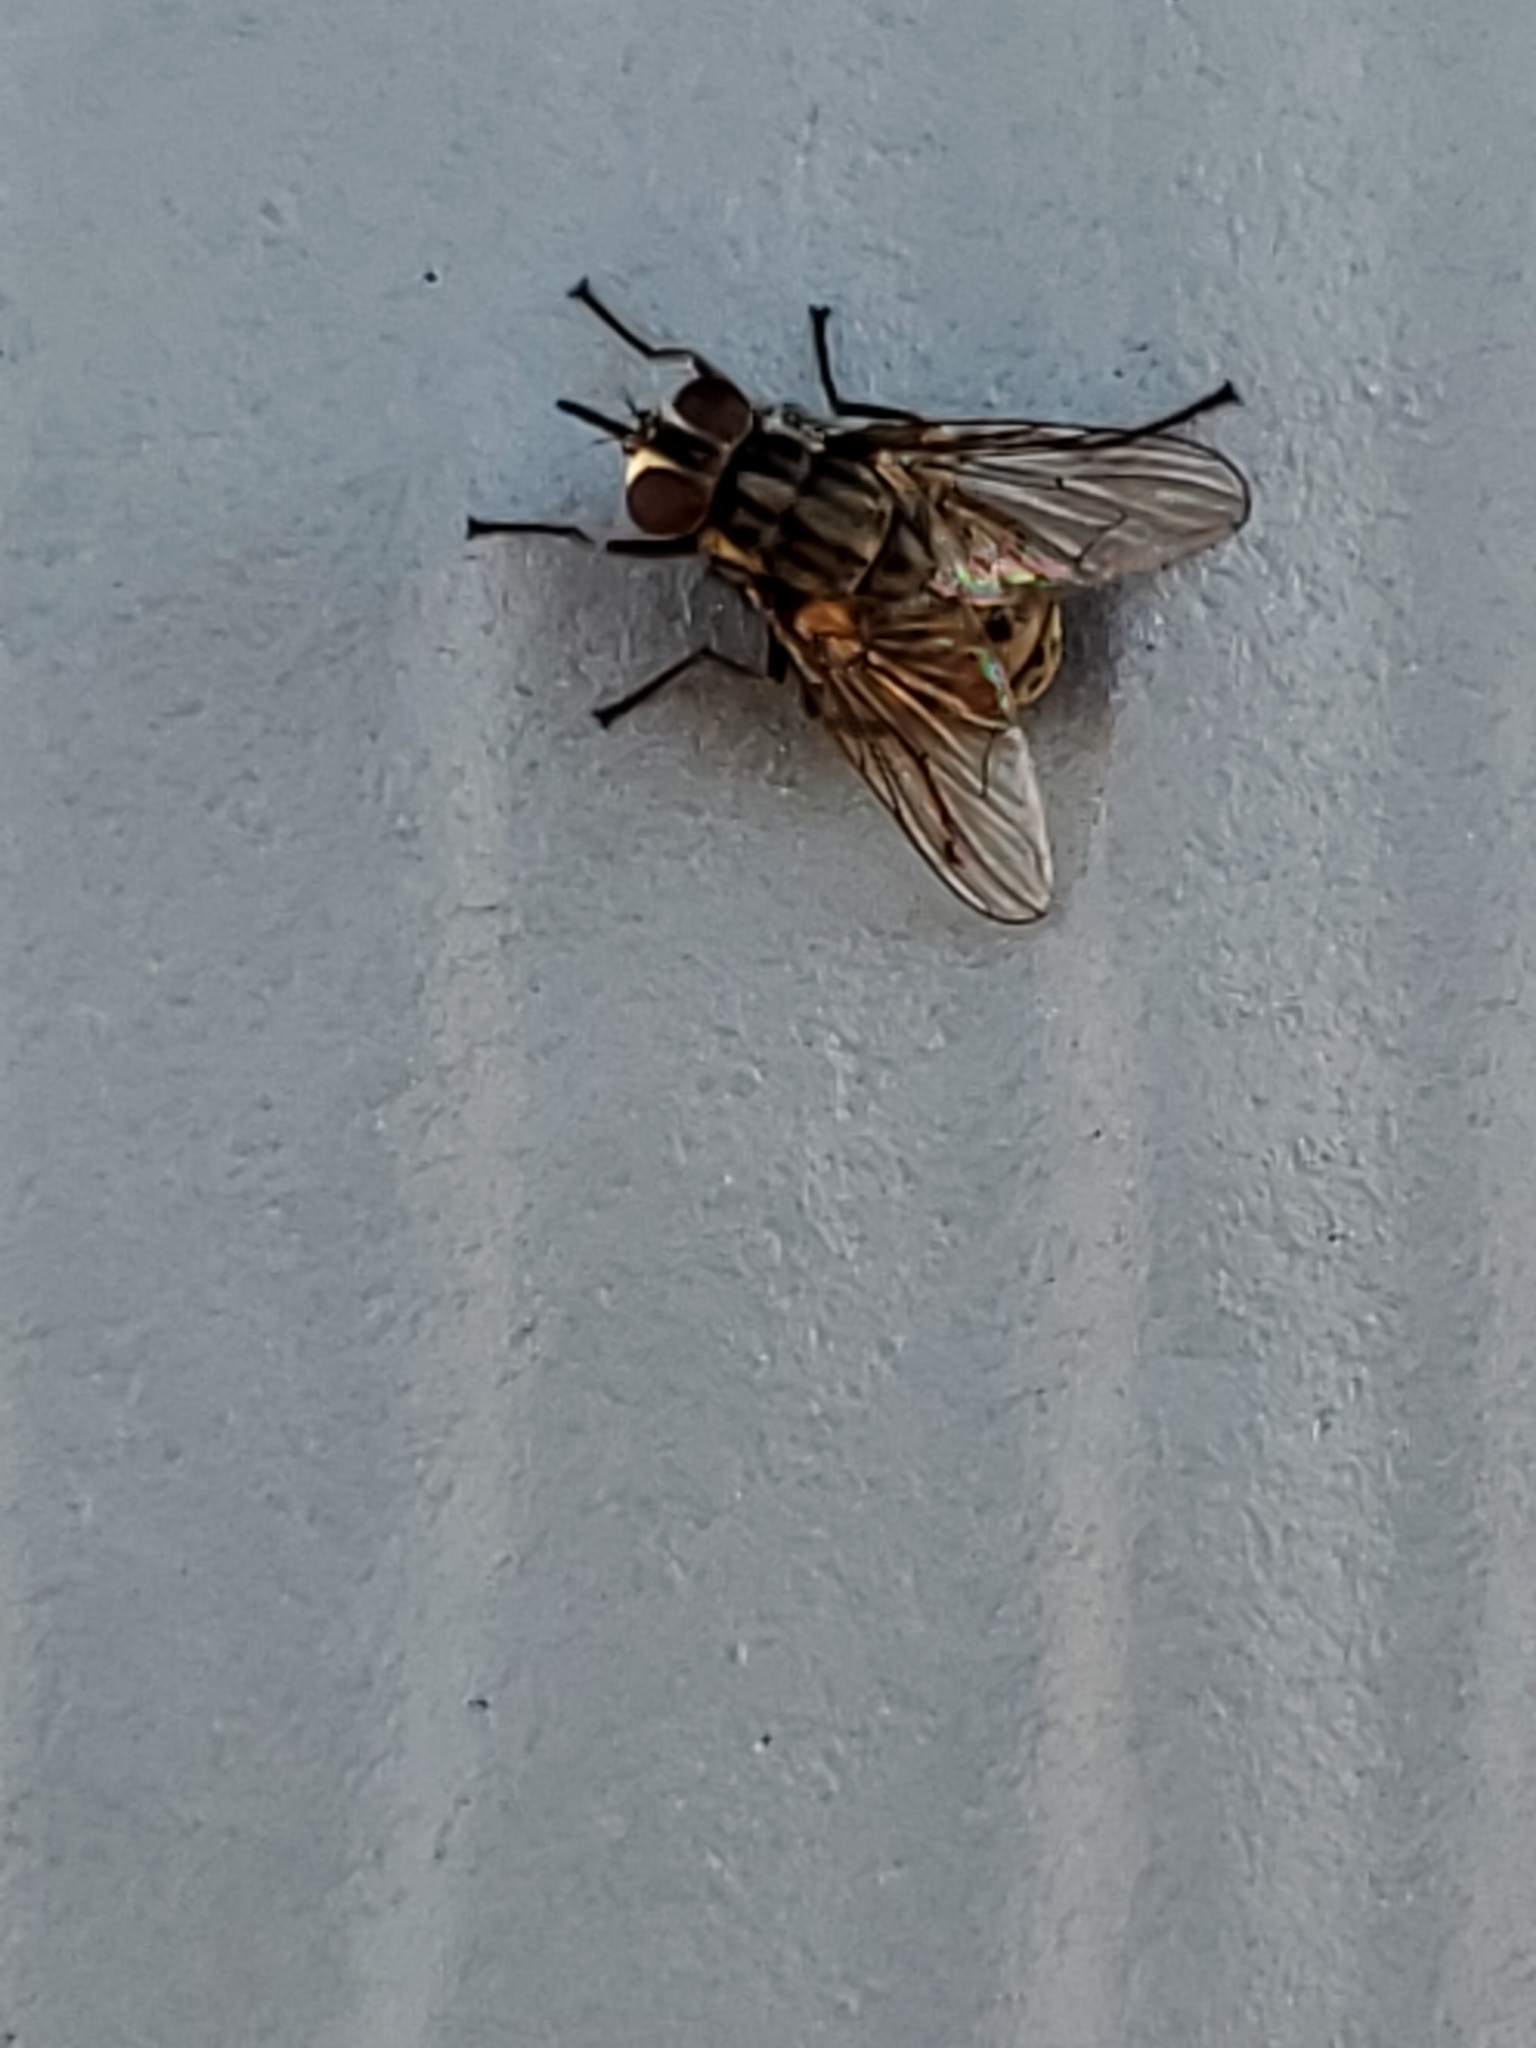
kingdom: Animalia
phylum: Arthropoda
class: Insecta
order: Diptera
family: Muscidae
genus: Stomoxys
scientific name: Stomoxys calcitrans
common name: Stable fly
